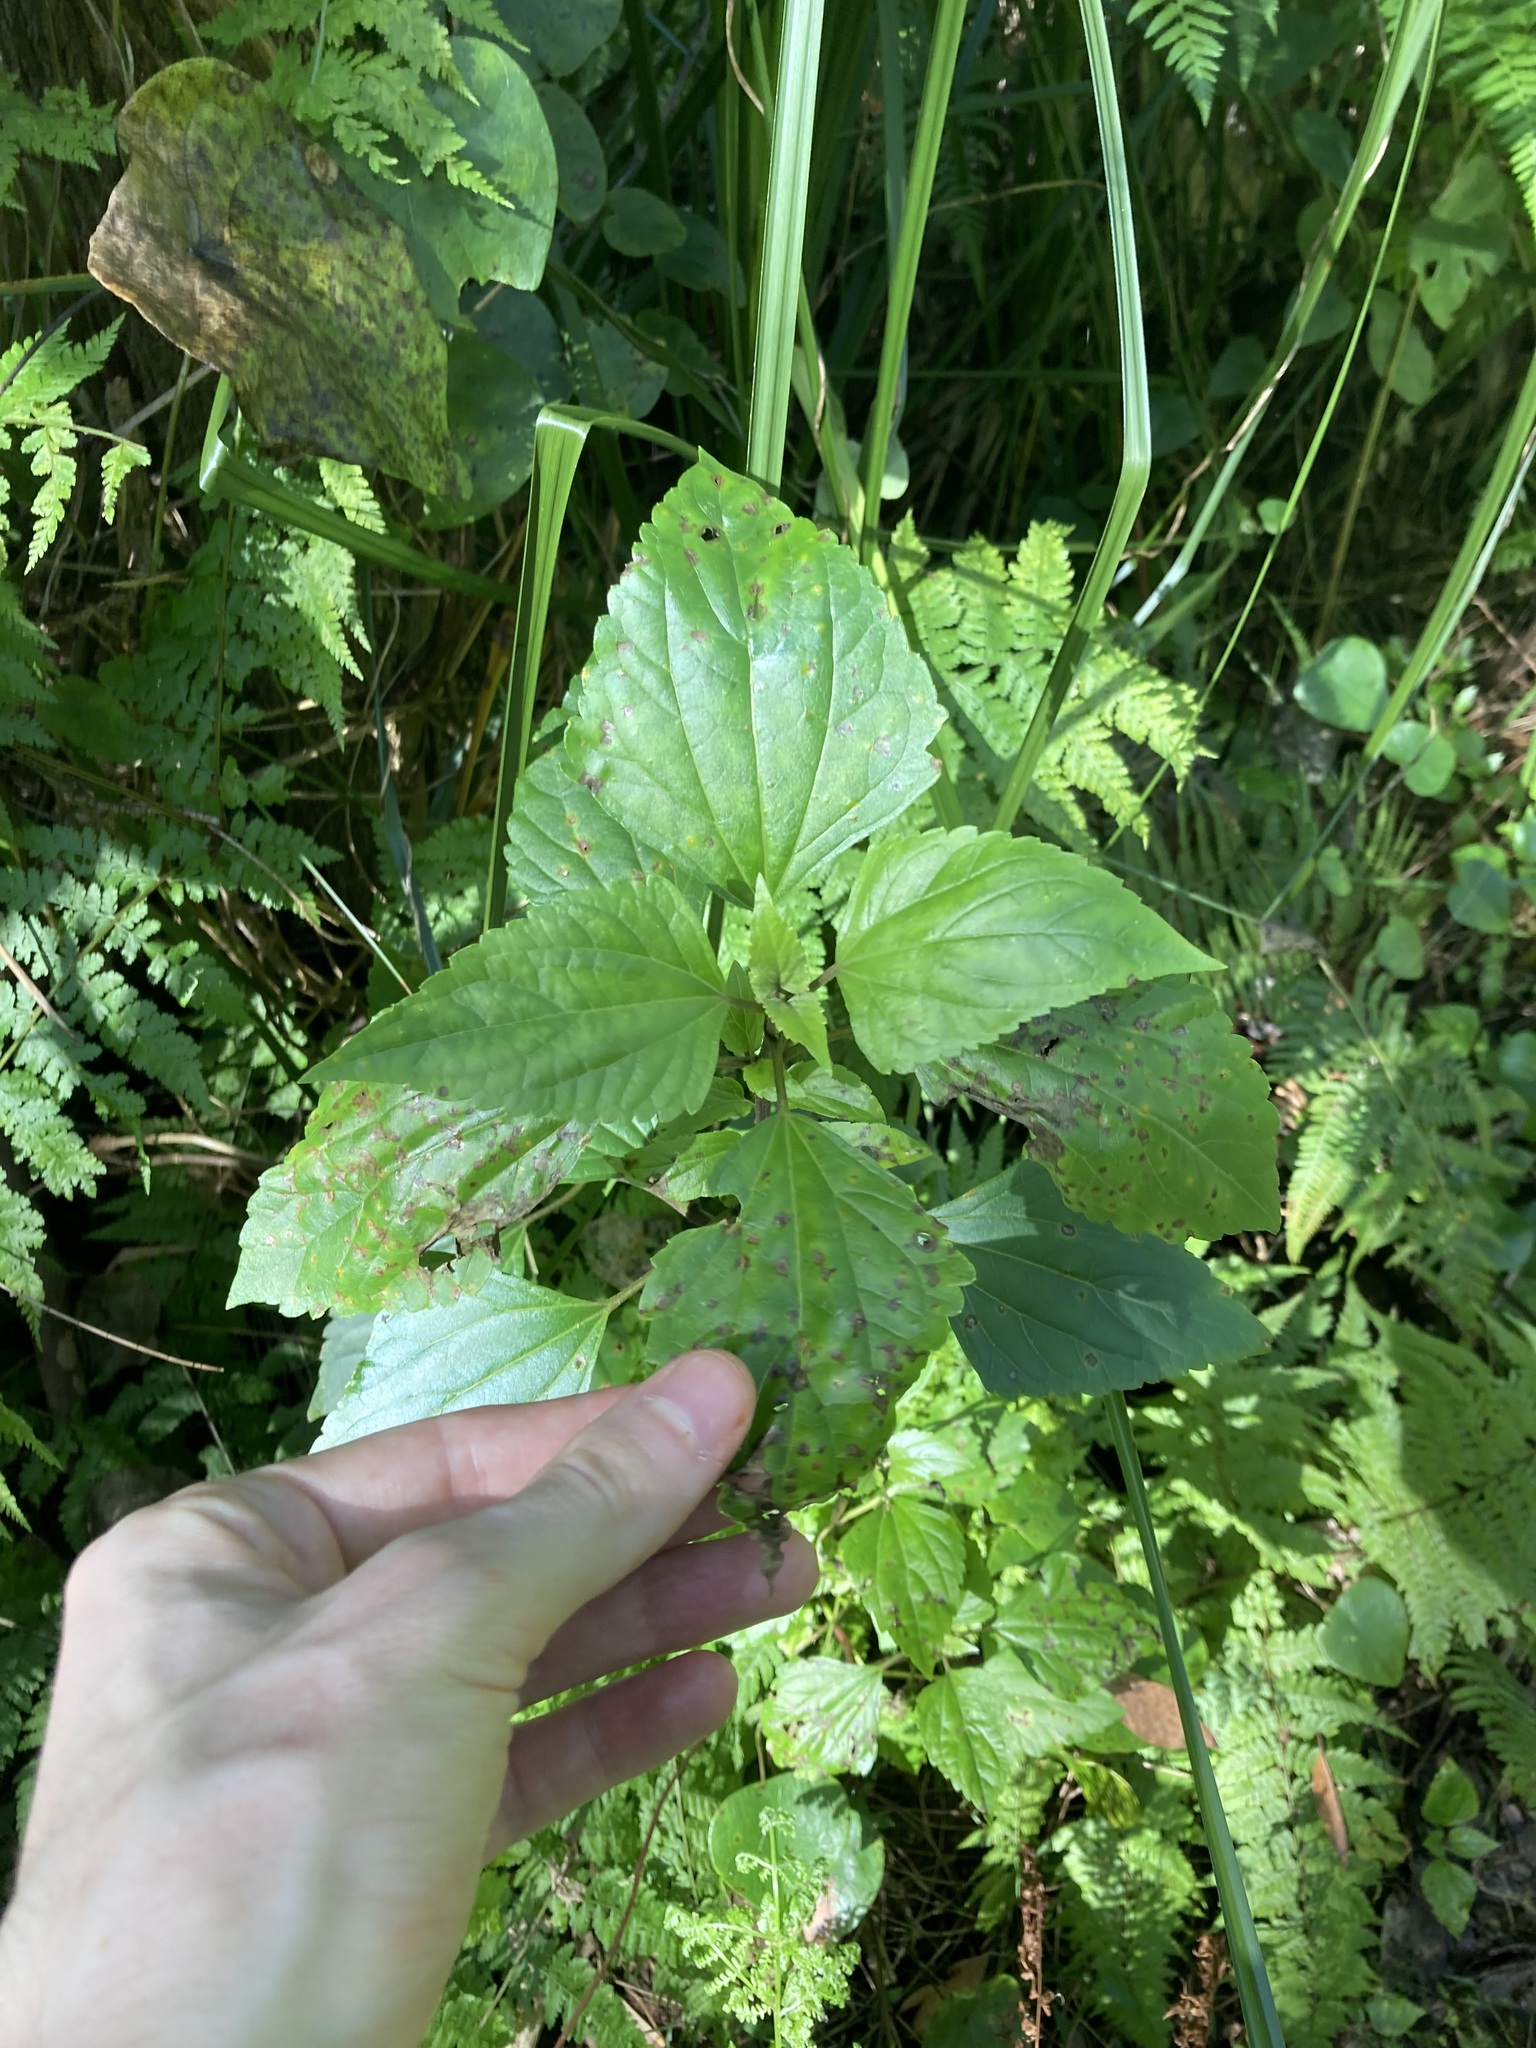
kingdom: Plantae
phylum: Tracheophyta
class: Magnoliopsida
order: Asterales
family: Asteraceae
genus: Ageratina
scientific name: Ageratina adenophora
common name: Sticky snakeroot
